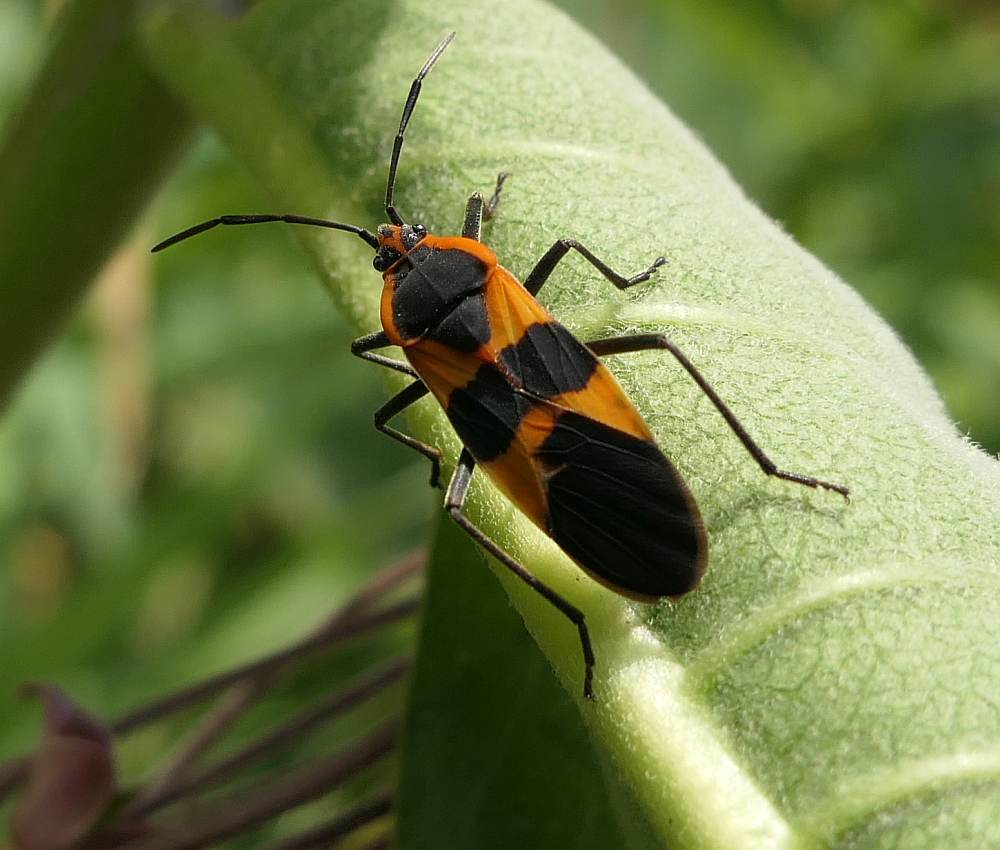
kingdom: Animalia
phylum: Arthropoda
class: Insecta
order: Hemiptera
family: Lygaeidae
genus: Oncopeltus
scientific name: Oncopeltus fasciatus
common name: Large milkweed bug
